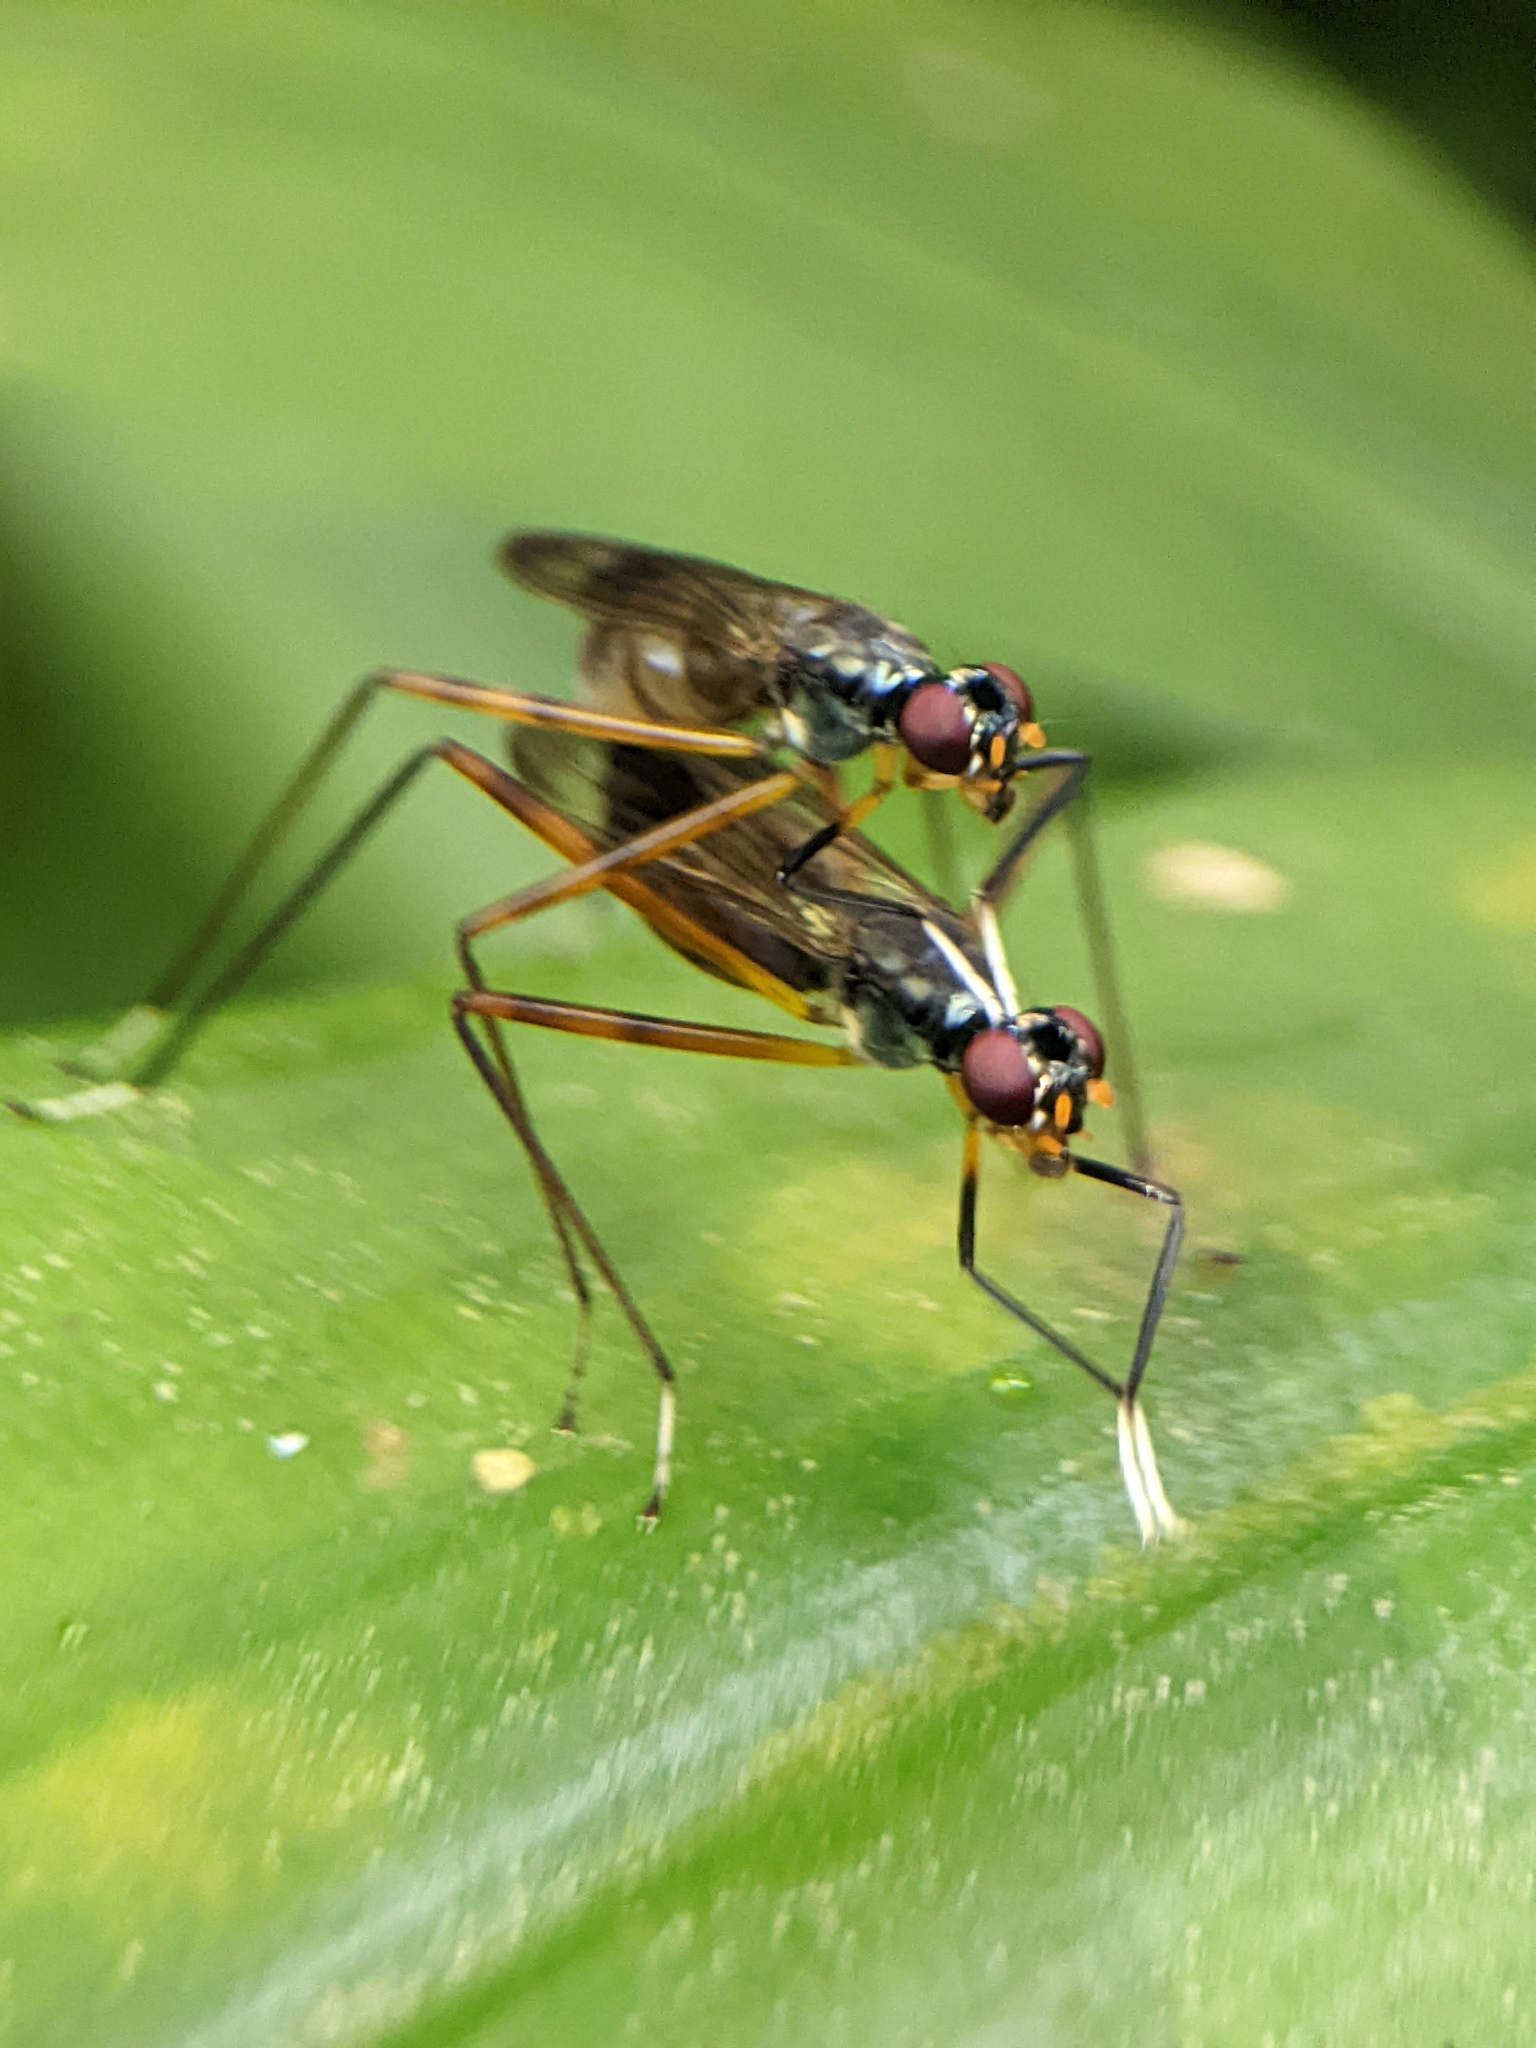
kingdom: Animalia
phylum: Arthropoda
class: Insecta
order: Diptera
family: Micropezidae
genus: Mimegralla
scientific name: Mimegralla albimanus
